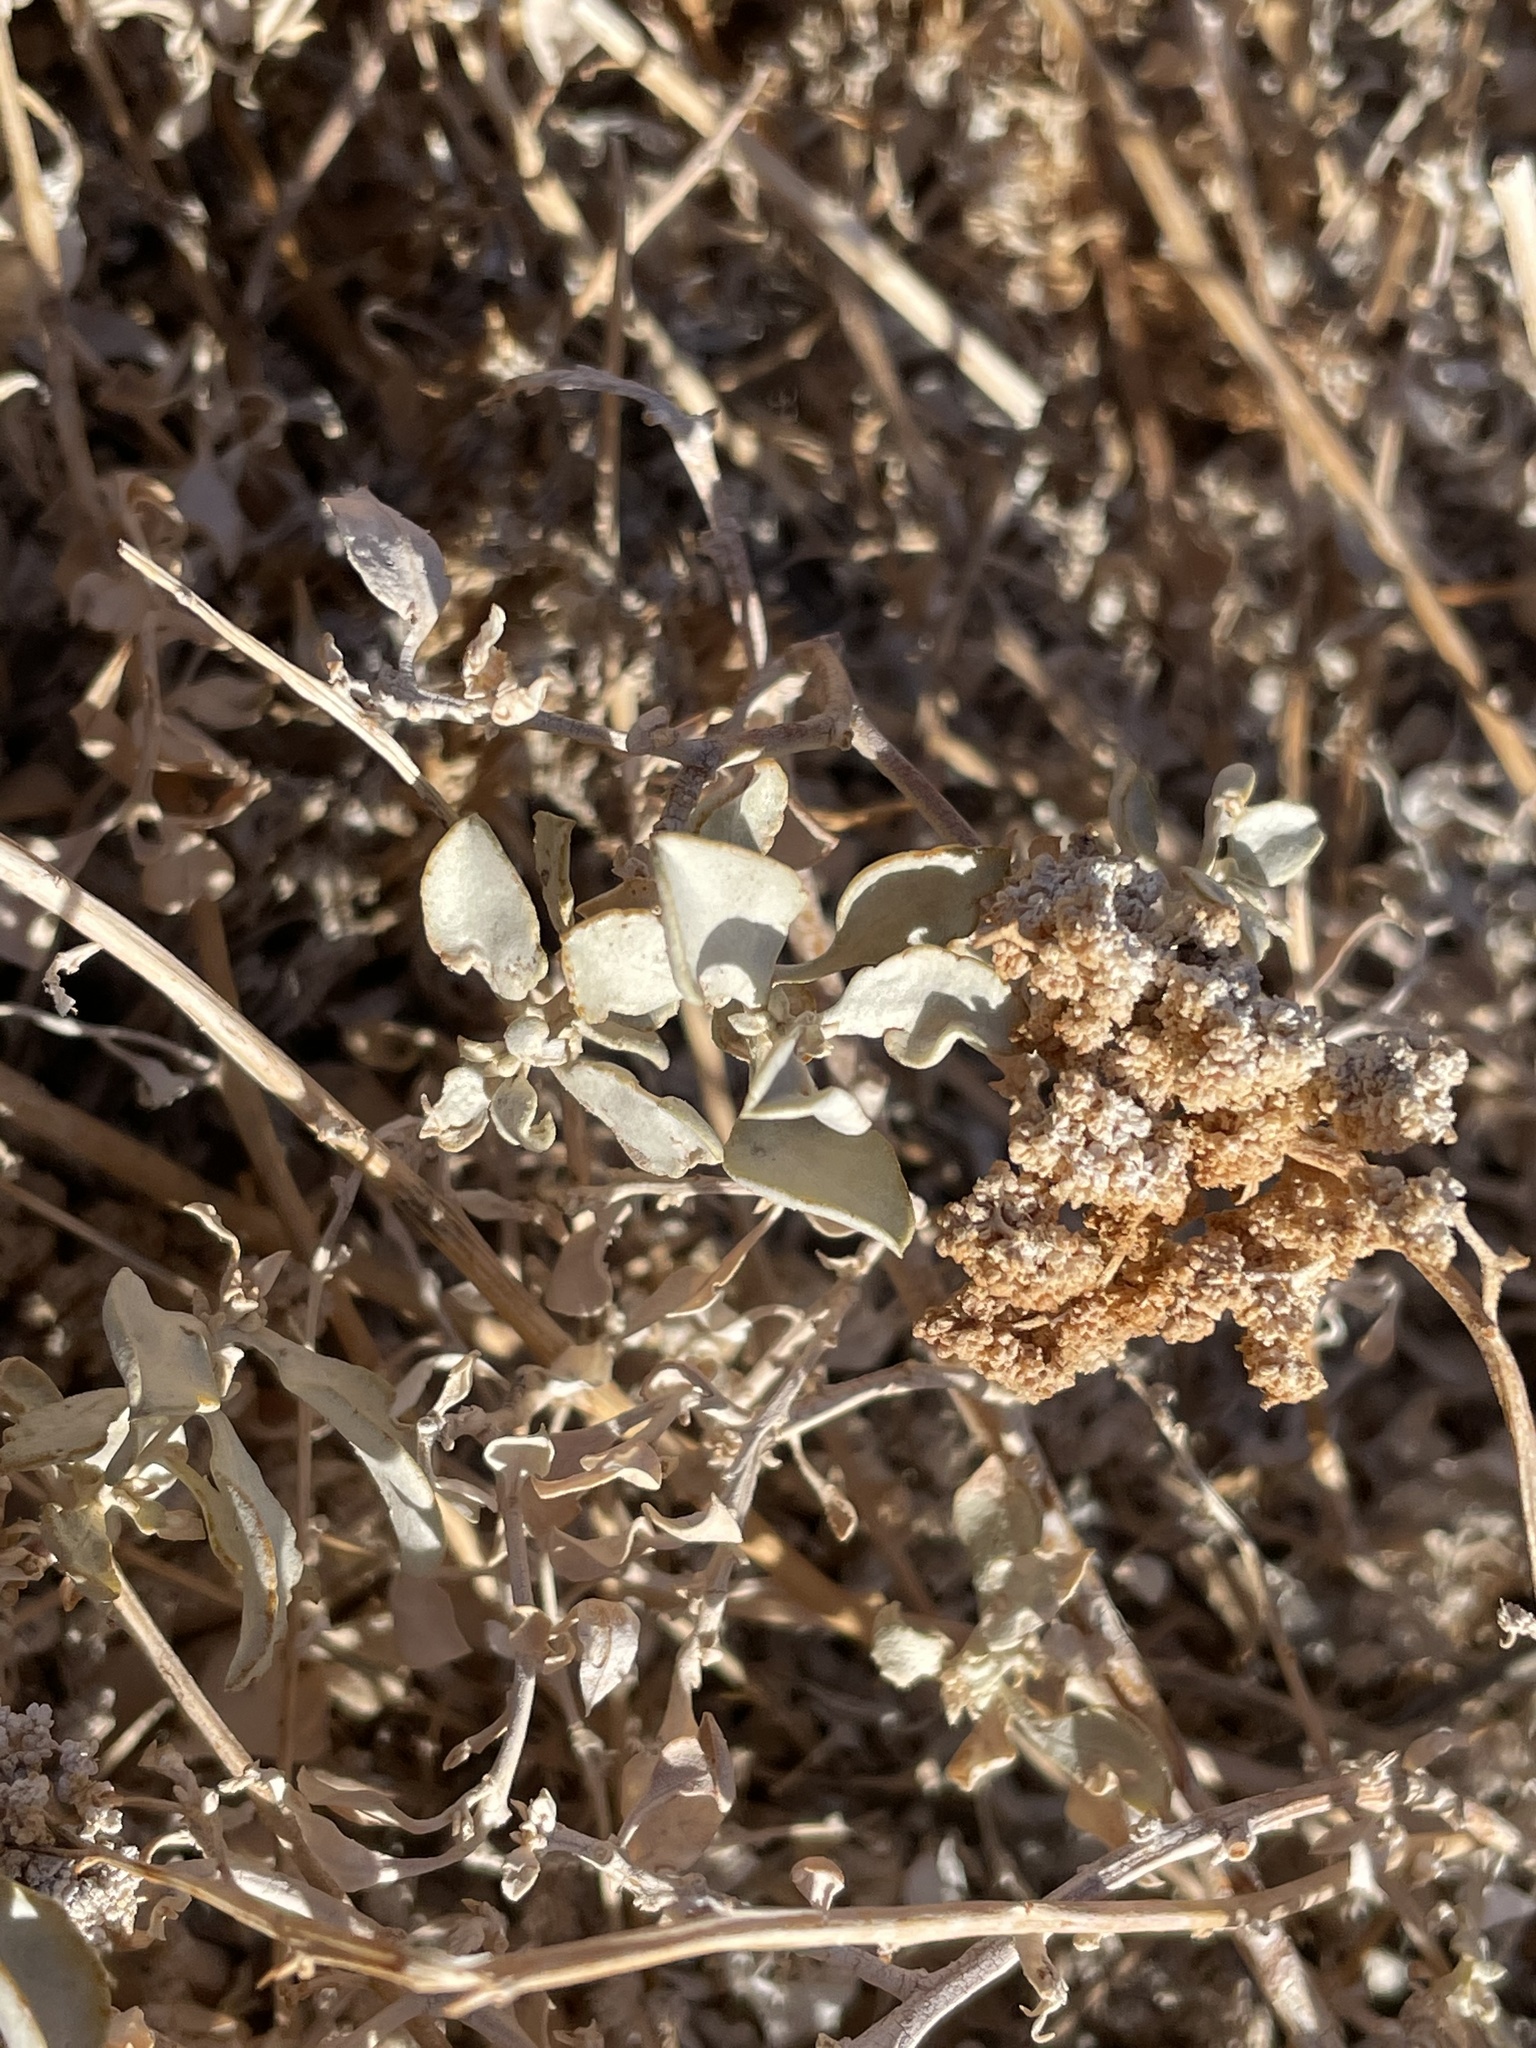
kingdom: Plantae
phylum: Tracheophyta
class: Magnoliopsida
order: Caryophyllales
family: Amaranthaceae
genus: Atriplex
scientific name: Atriplex barclayana
